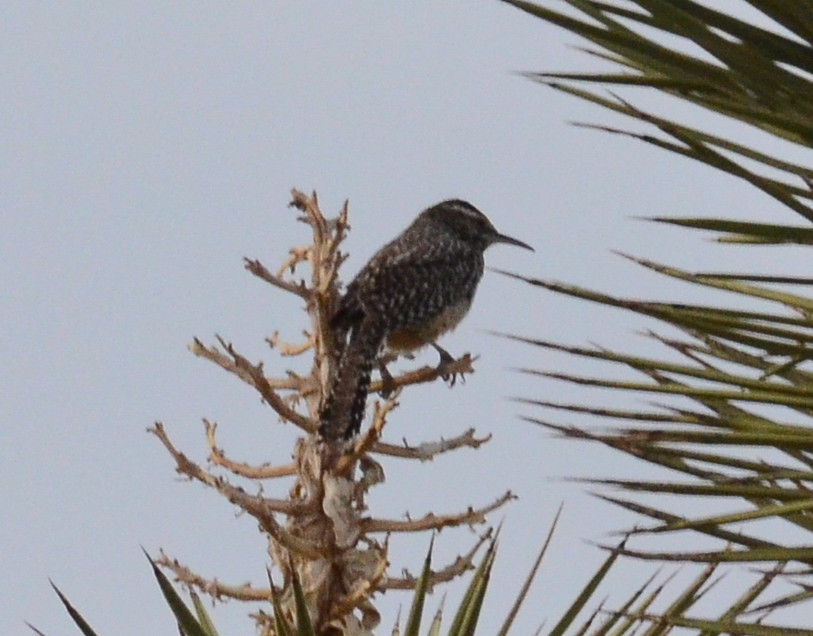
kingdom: Animalia
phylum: Chordata
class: Aves
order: Passeriformes
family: Troglodytidae
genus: Campylorhynchus
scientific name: Campylorhynchus brunneicapillus
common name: Cactus wren
